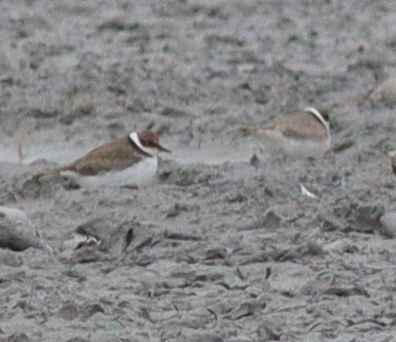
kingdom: Animalia
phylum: Chordata
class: Aves
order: Charadriiformes
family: Charadriidae
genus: Charadrius
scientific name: Charadrius dubius
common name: Little ringed plover
